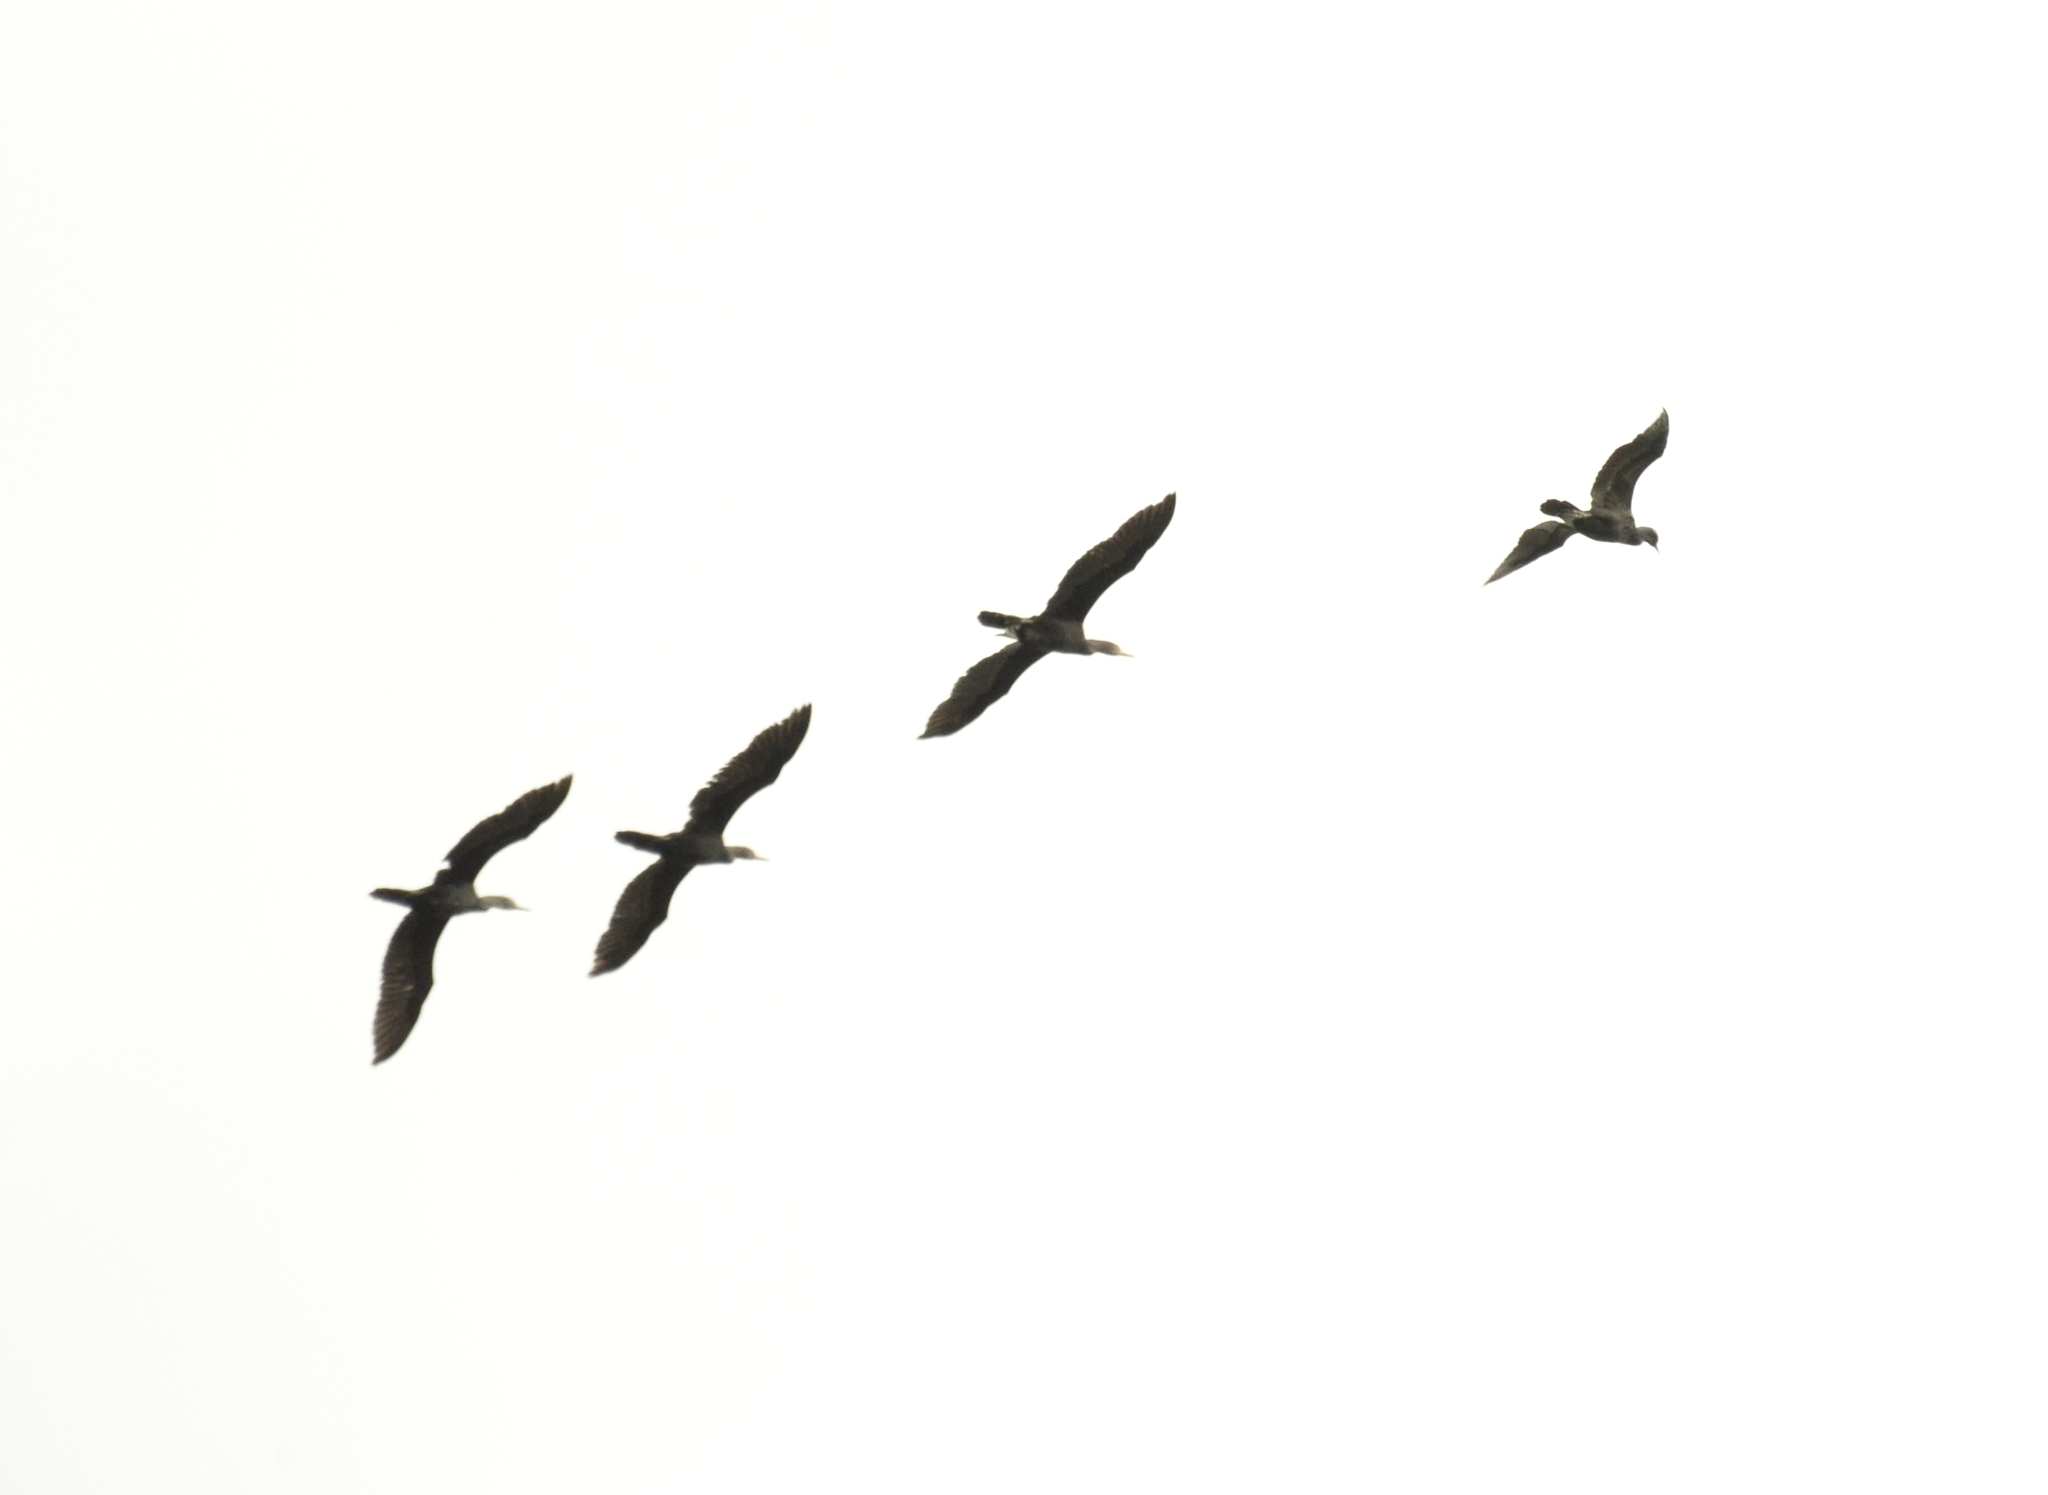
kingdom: Animalia
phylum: Chordata
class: Aves
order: Suliformes
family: Phalacrocoracidae
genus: Phalacrocorax
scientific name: Phalacrocorax fuscicollis
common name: Indian cormorant
